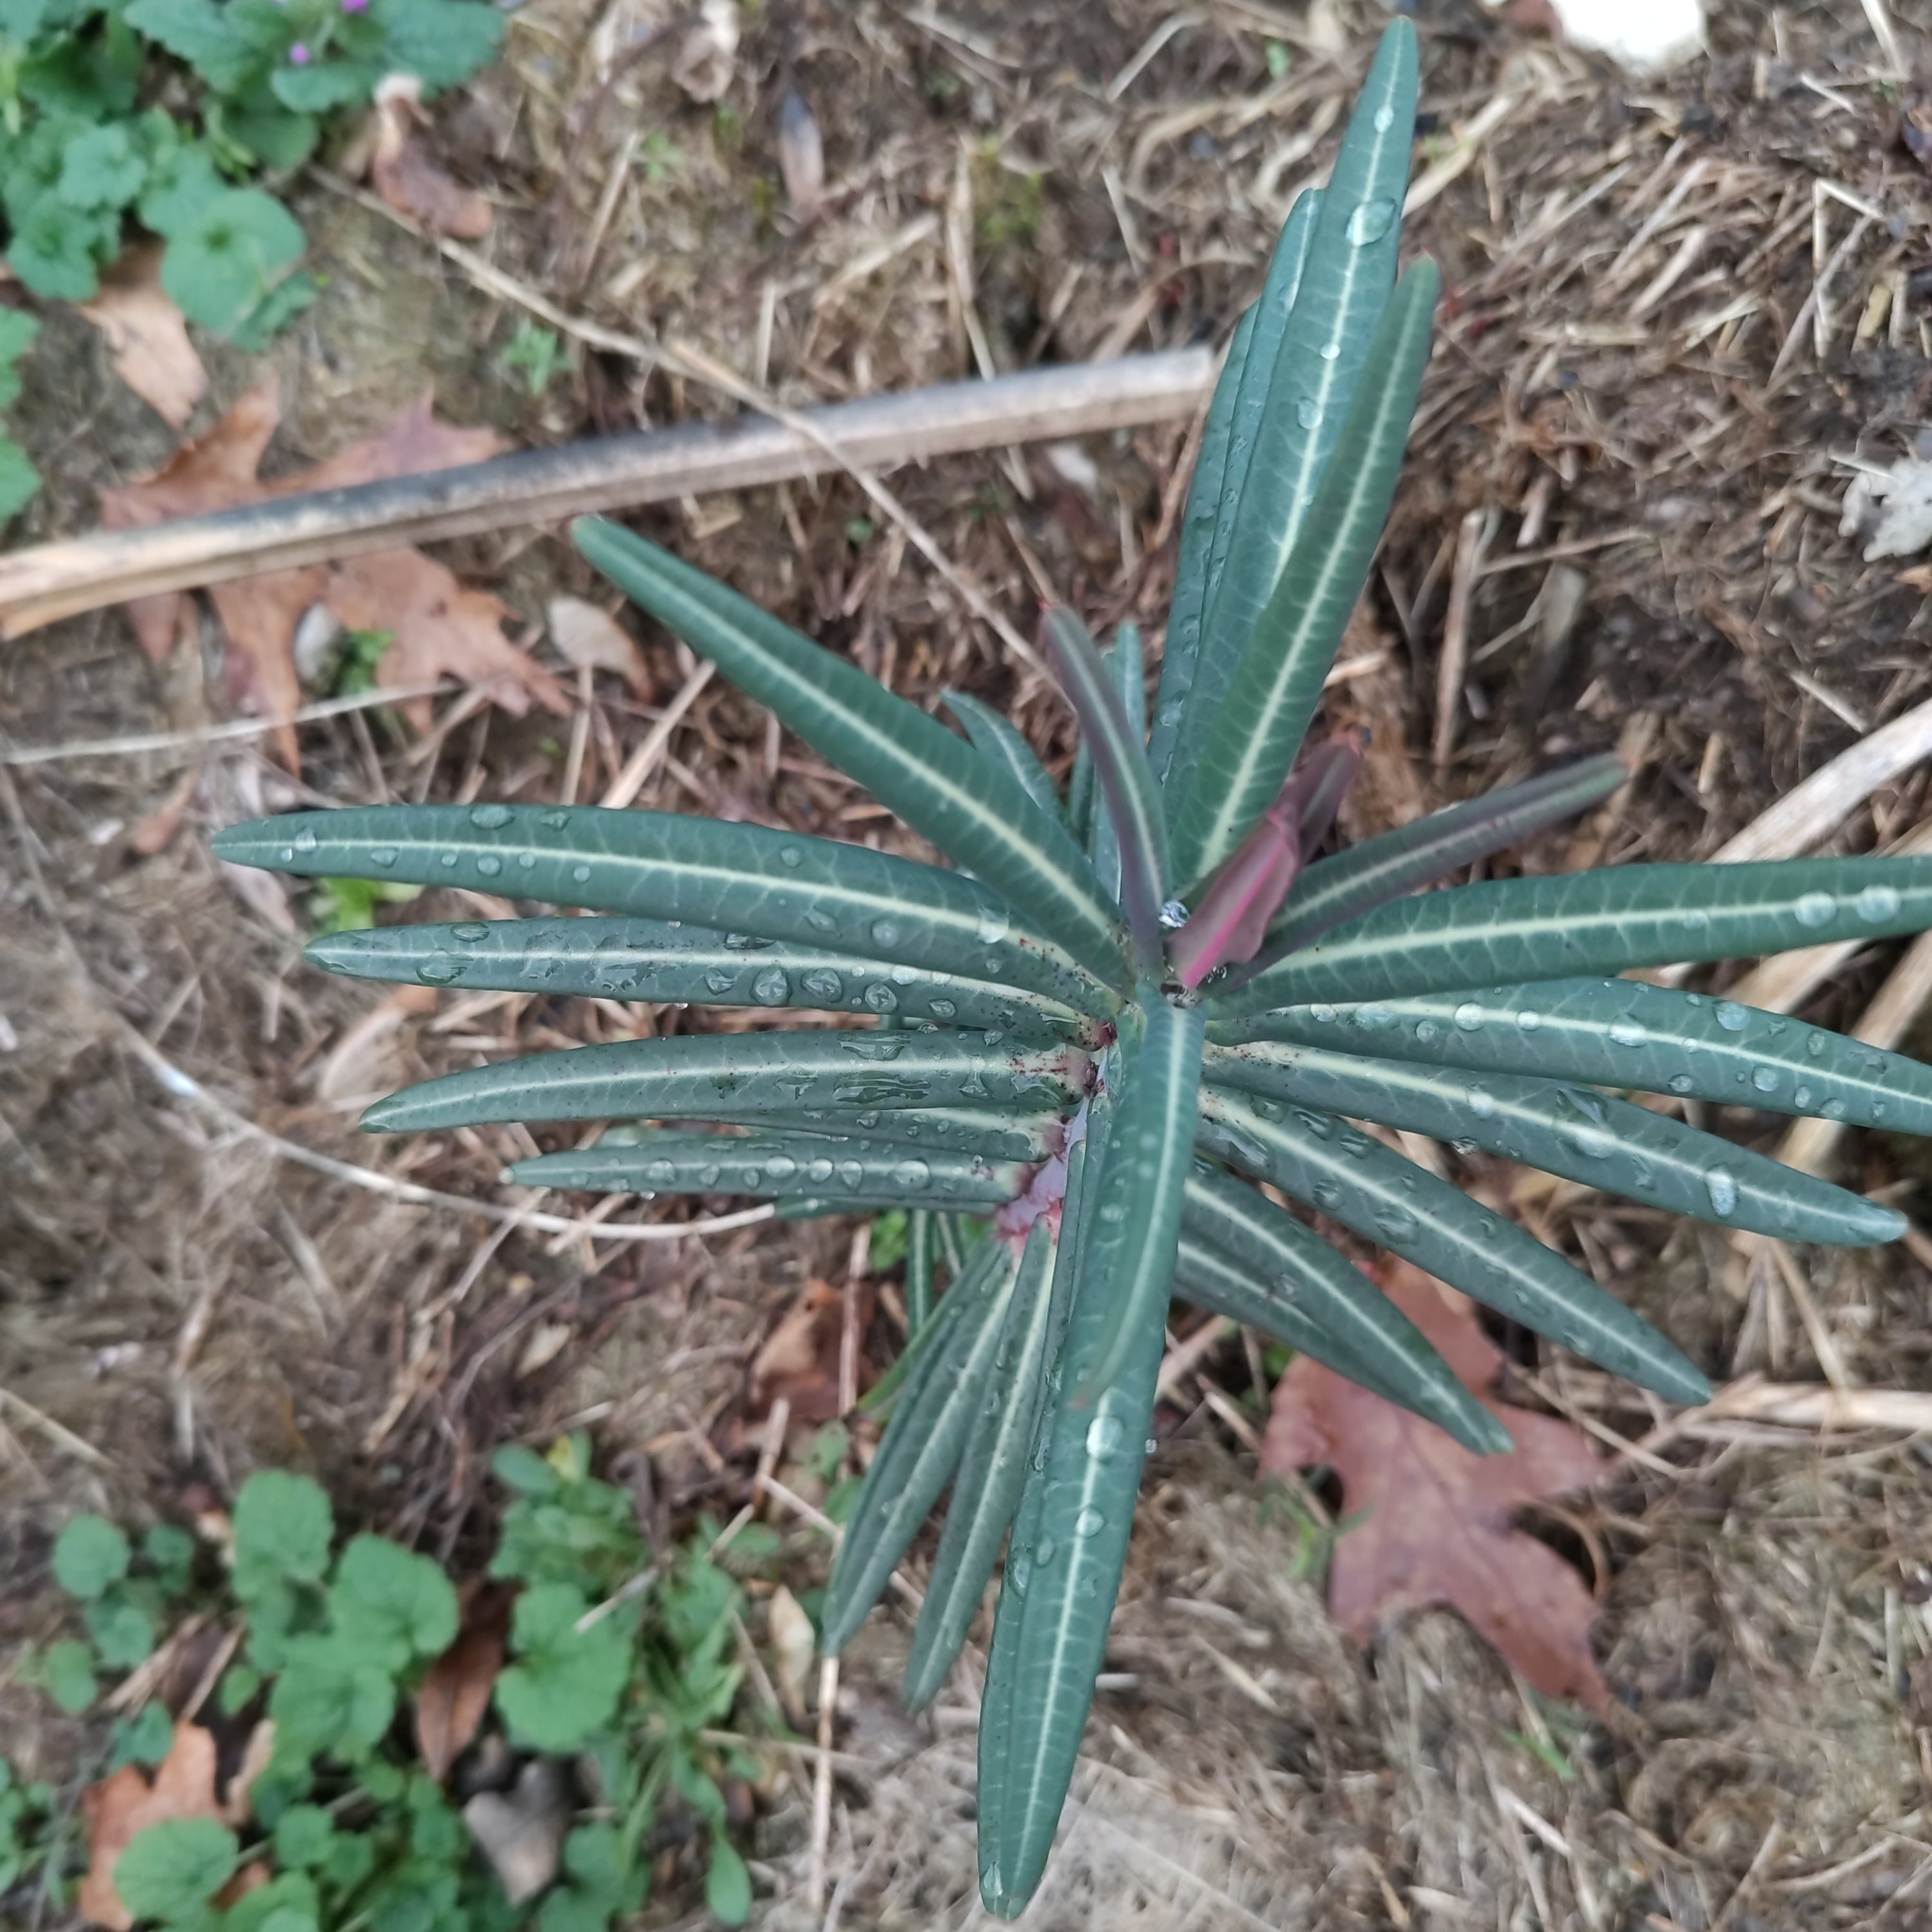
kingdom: Plantae
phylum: Tracheophyta
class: Magnoliopsida
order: Malpighiales
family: Euphorbiaceae
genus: Euphorbia
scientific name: Euphorbia lathyris
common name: Caper spurge
